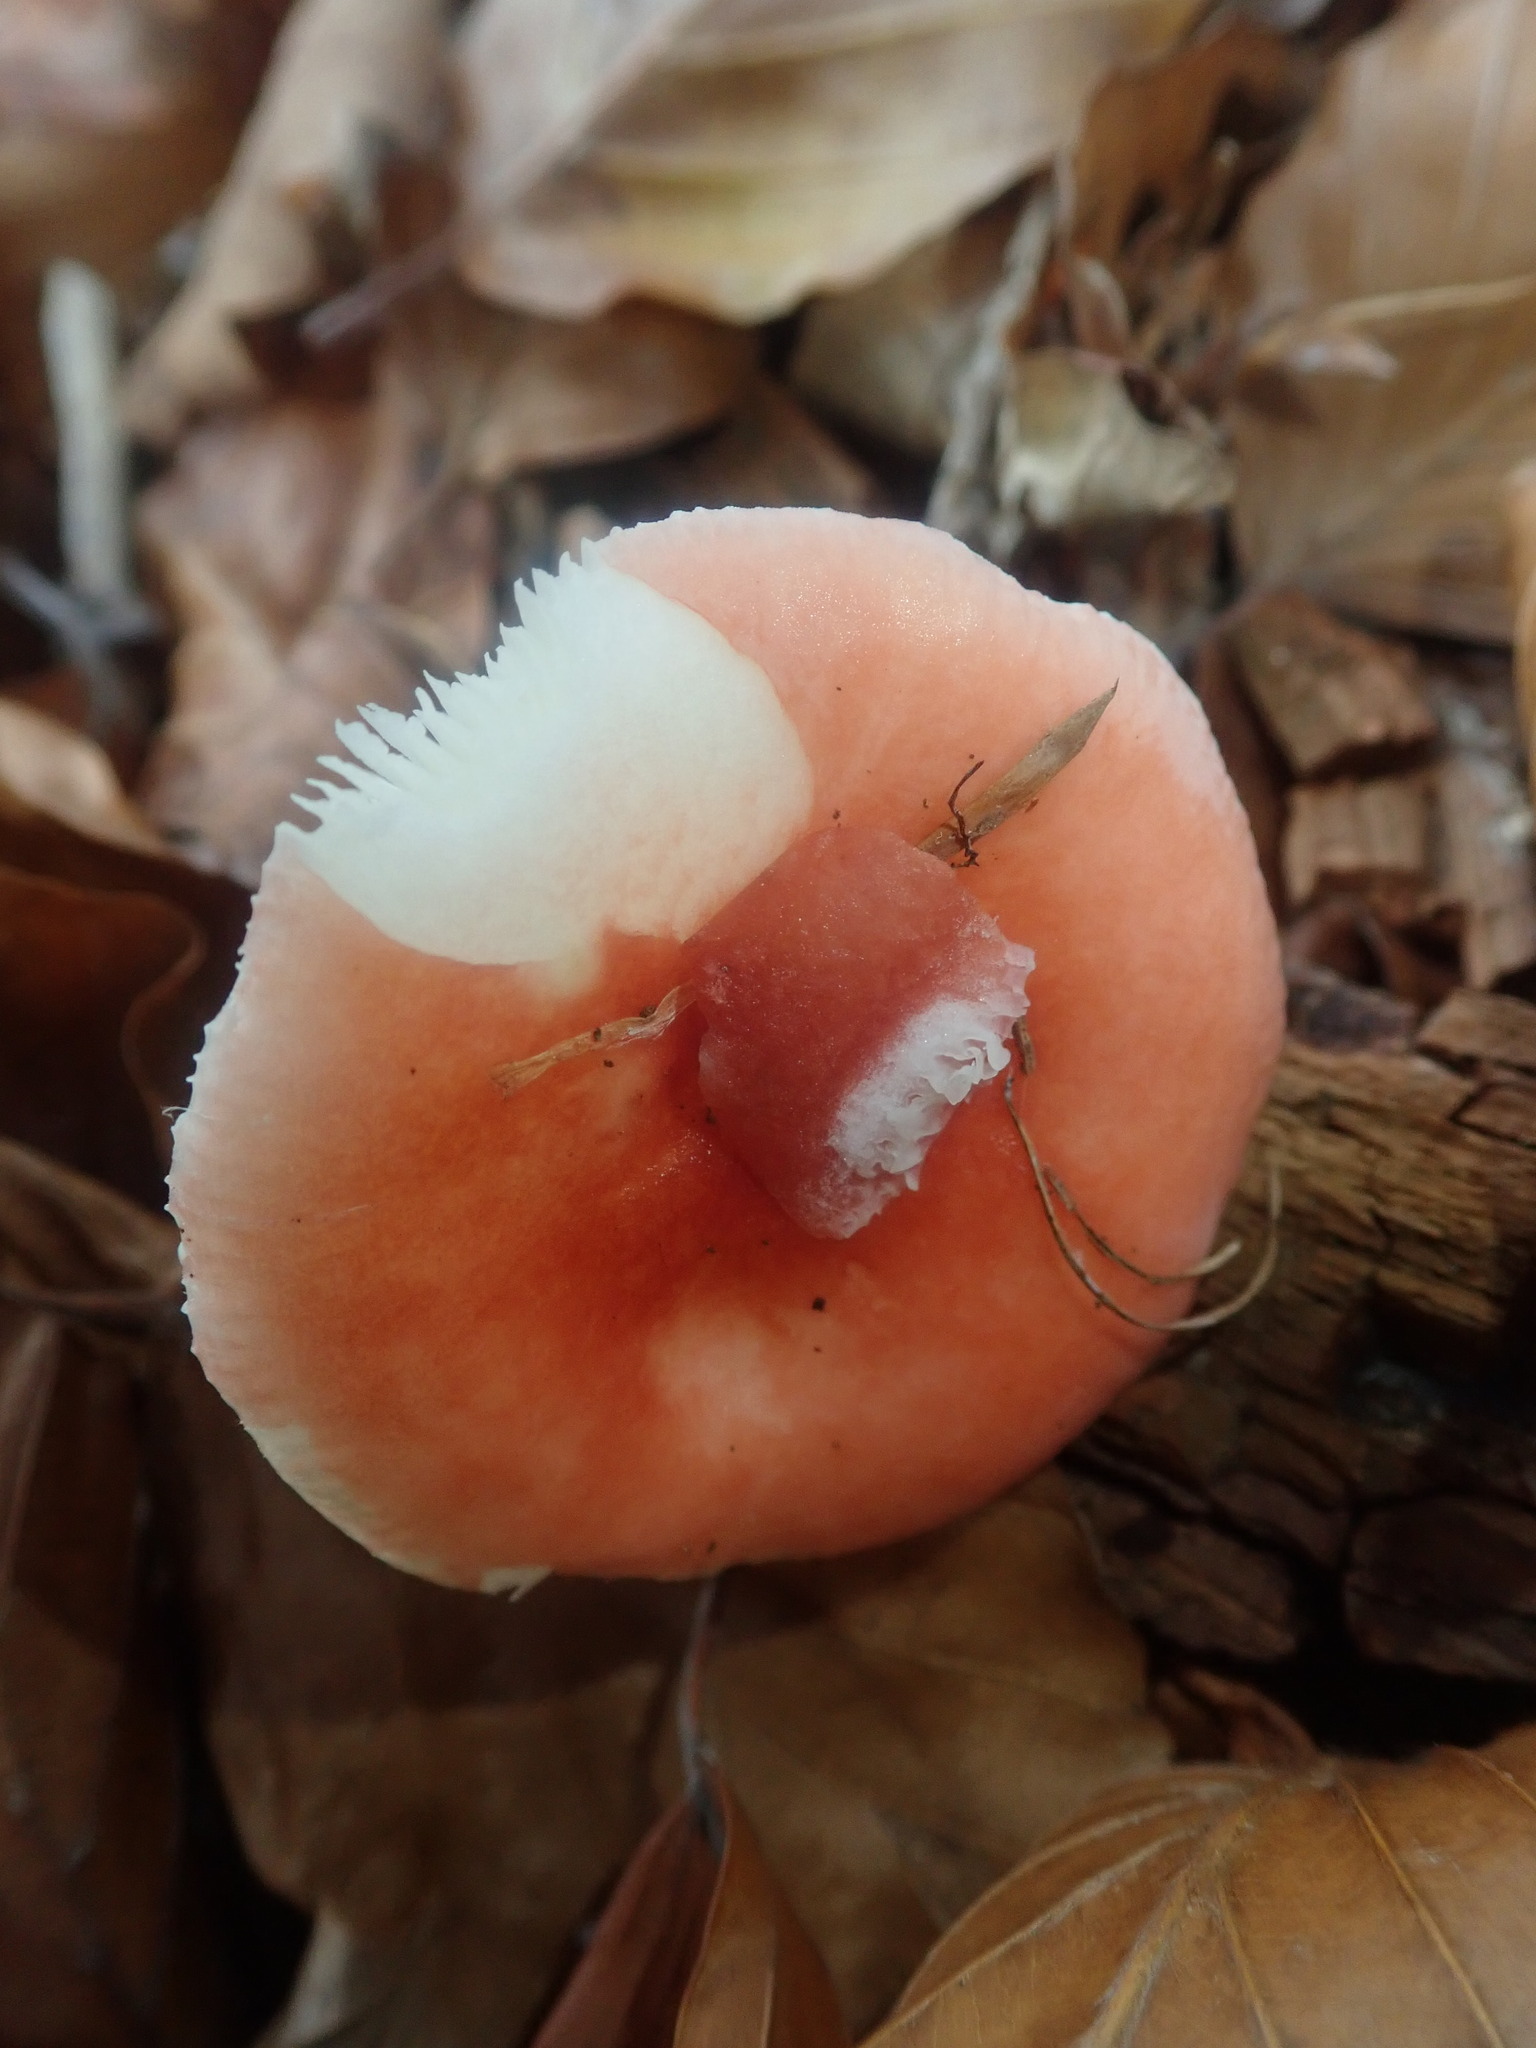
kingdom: Fungi
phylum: Basidiomycota
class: Agaricomycetes
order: Russulales
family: Russulaceae
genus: Russula
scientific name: Russula
